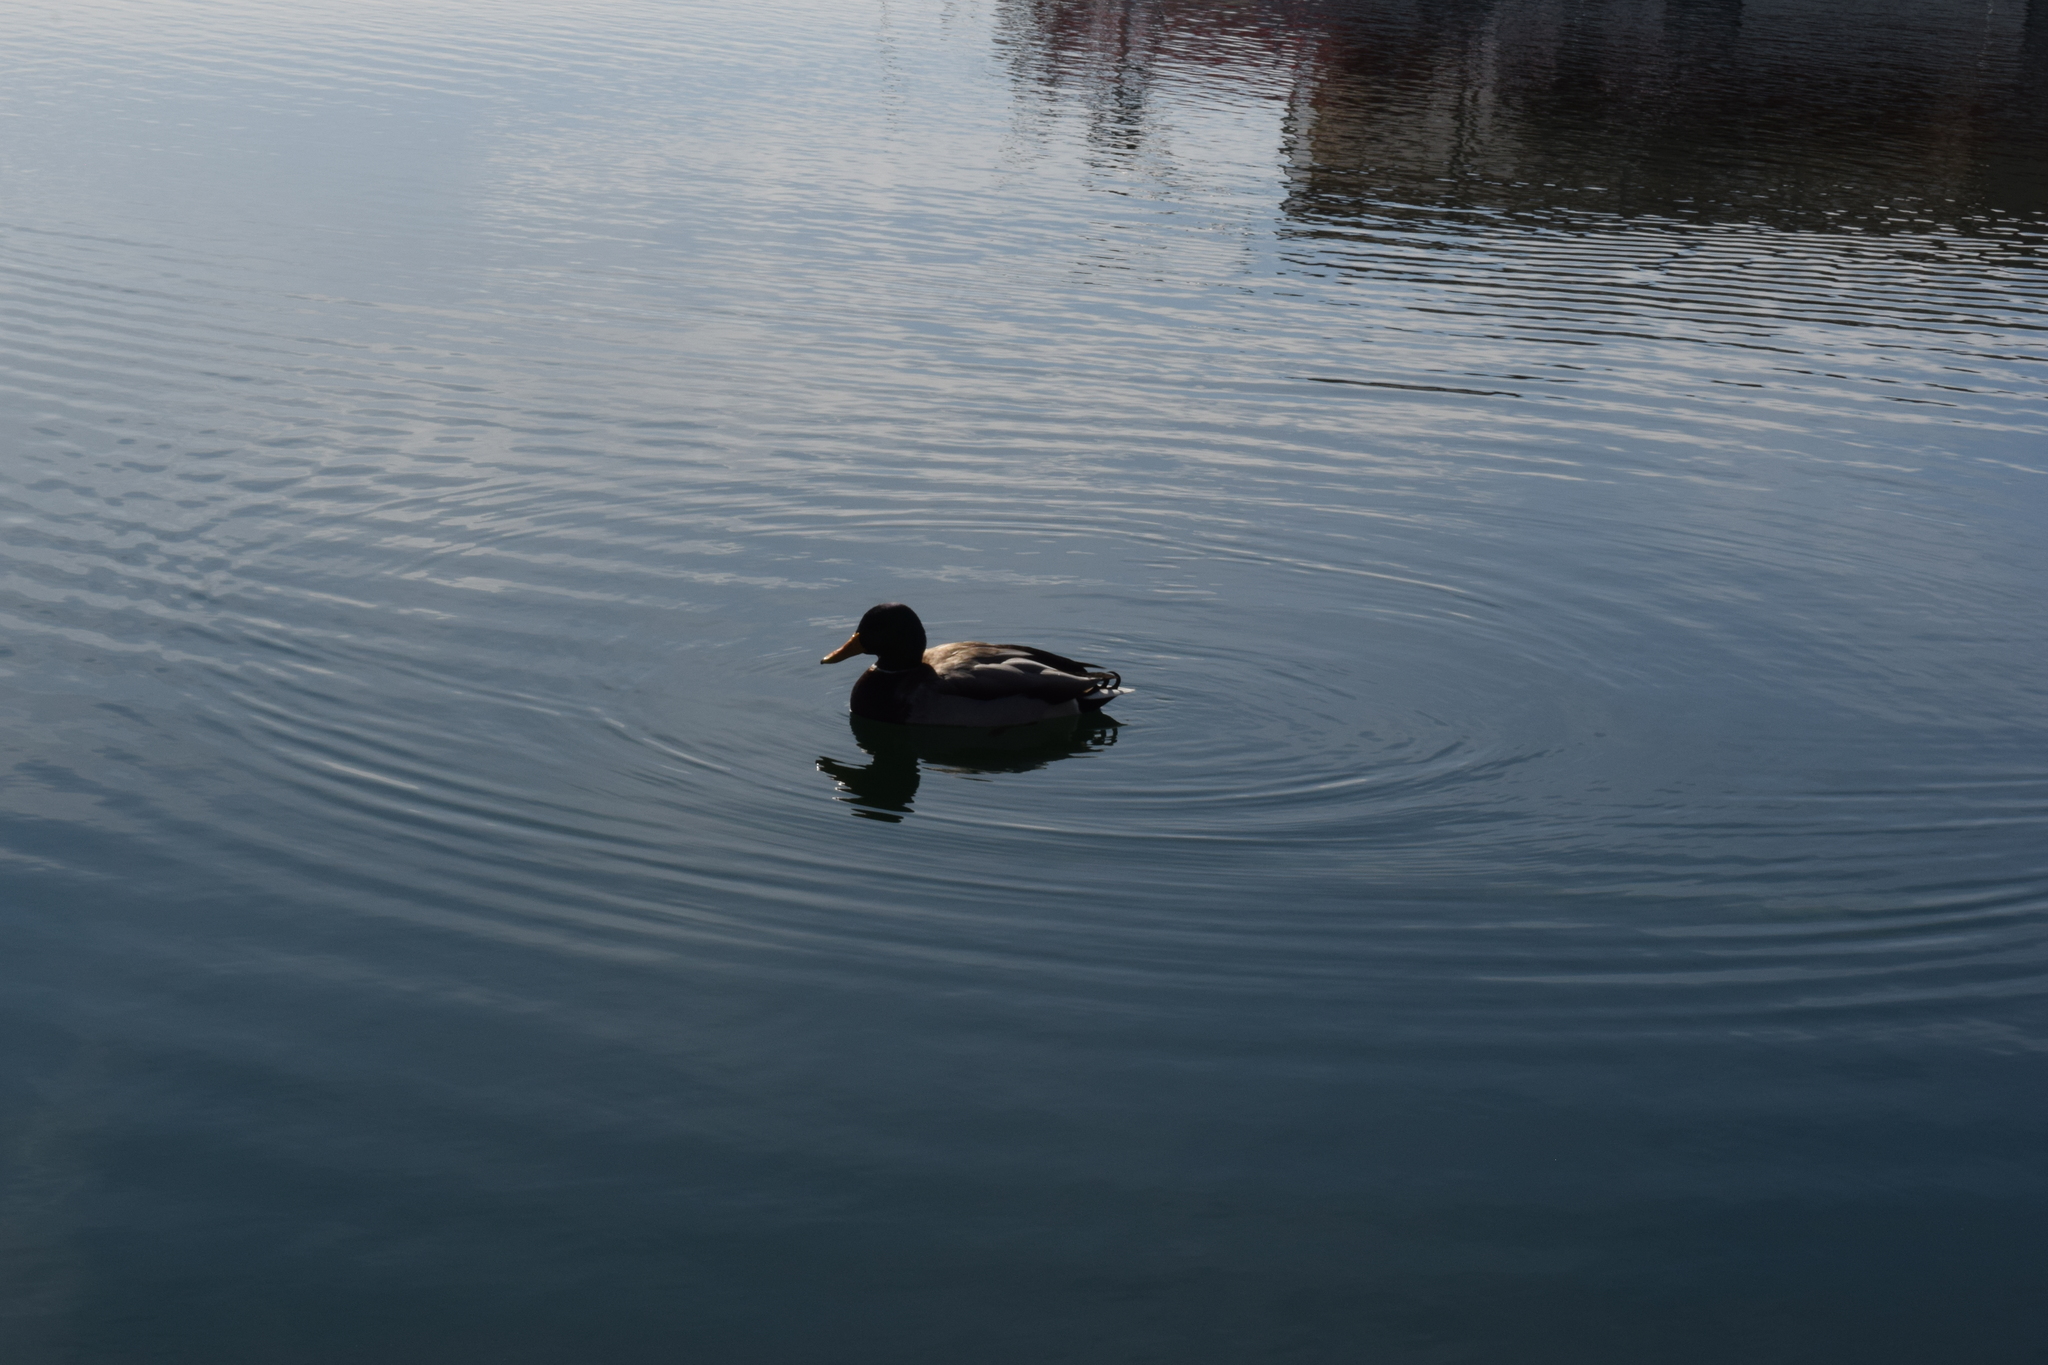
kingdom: Animalia
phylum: Chordata
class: Aves
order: Anseriformes
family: Anatidae
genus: Anas
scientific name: Anas platyrhynchos
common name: Mallard
